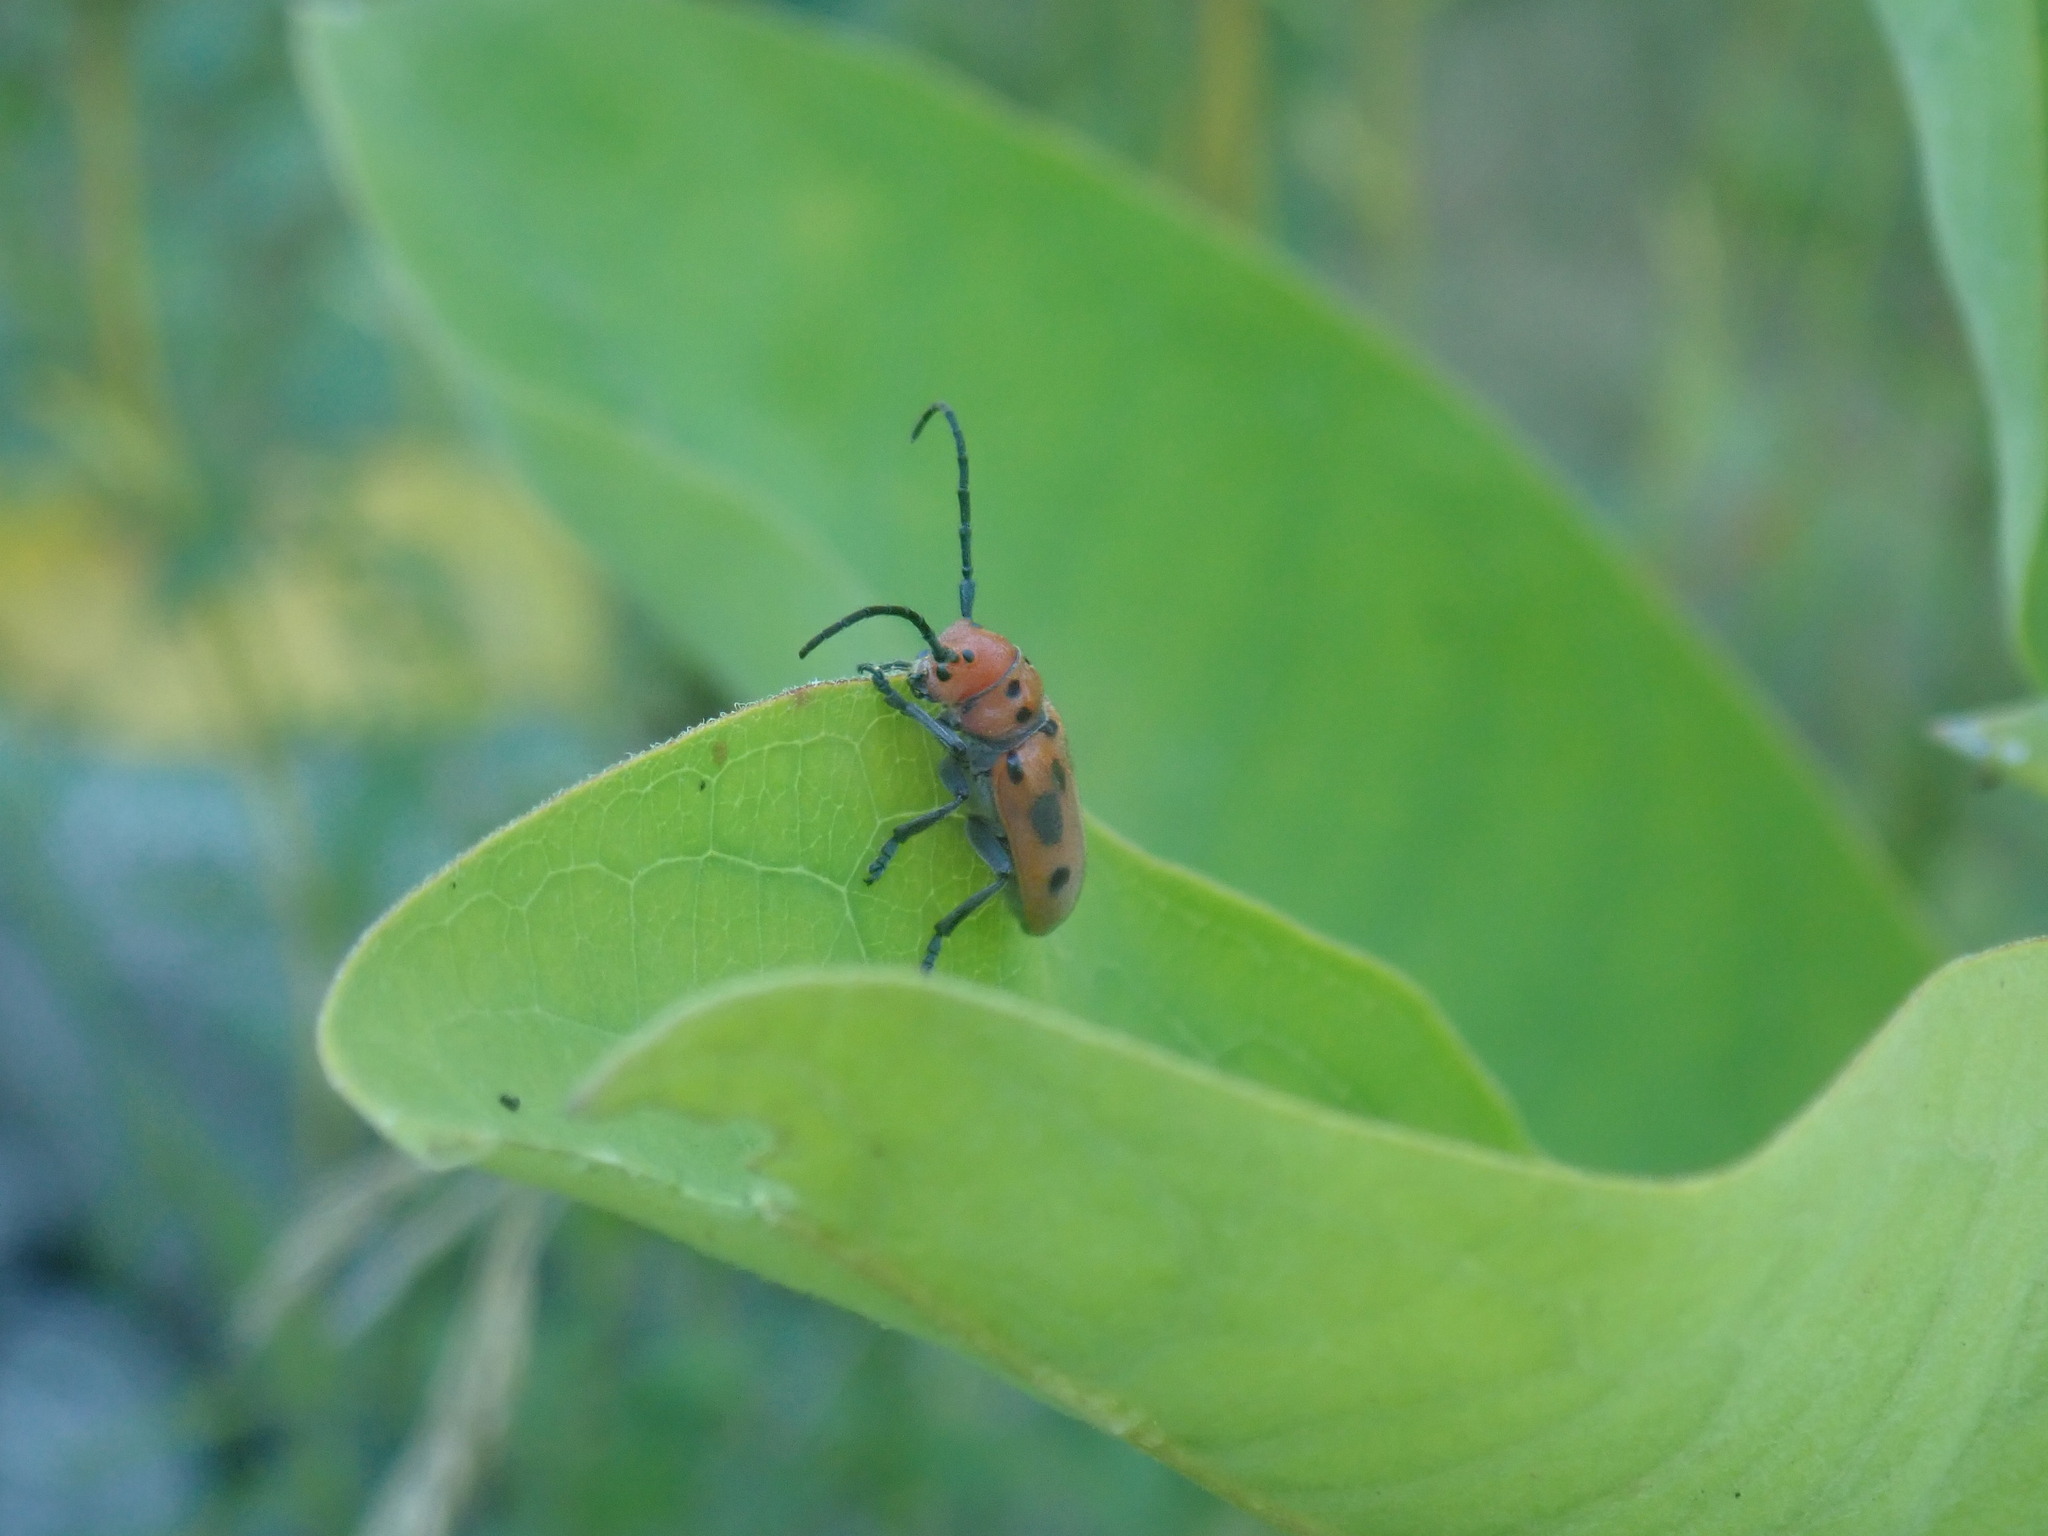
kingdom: Animalia
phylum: Arthropoda
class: Insecta
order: Coleoptera
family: Cerambycidae
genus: Tetraopes
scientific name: Tetraopes tetrophthalmus
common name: Red milkweed beetle
